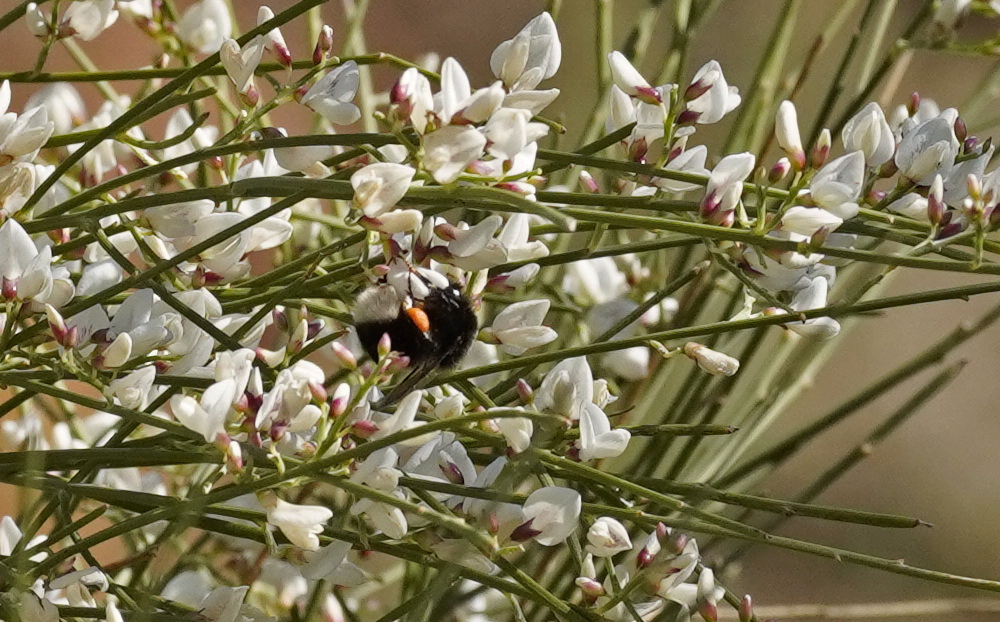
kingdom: Animalia
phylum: Arthropoda
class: Insecta
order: Hymenoptera
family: Apidae
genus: Bombus
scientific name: Bombus terrestris
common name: Buff-tailed bumblebee
